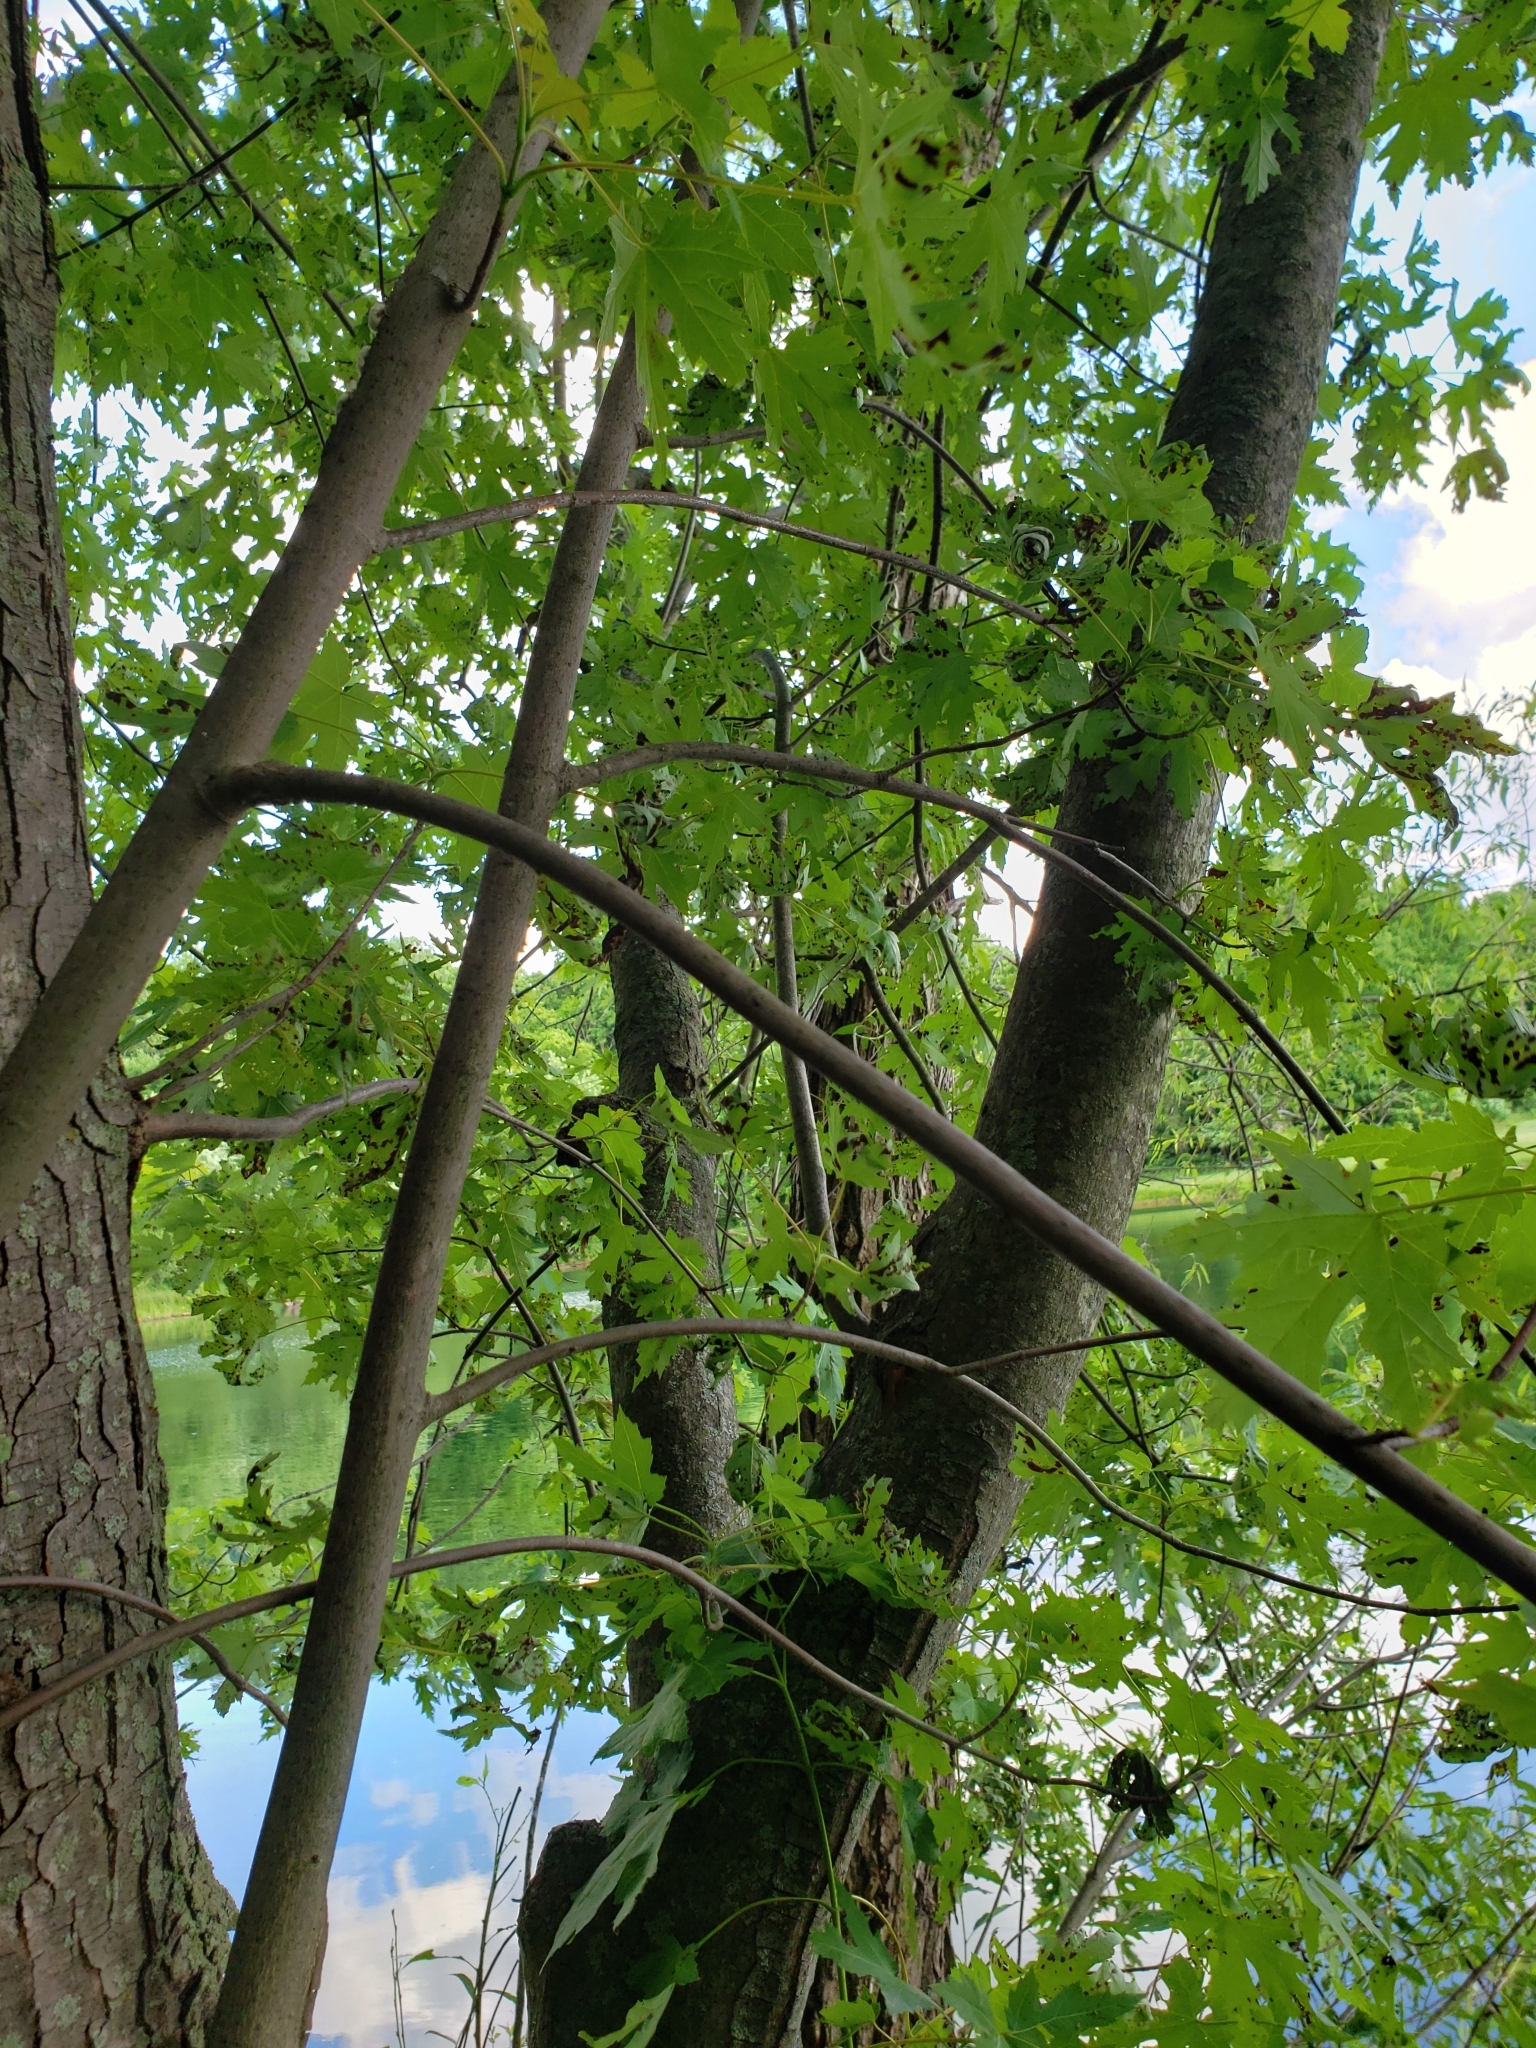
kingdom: Plantae
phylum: Tracheophyta
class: Magnoliopsida
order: Sapindales
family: Sapindaceae
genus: Acer
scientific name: Acer saccharinum
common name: Silver maple
